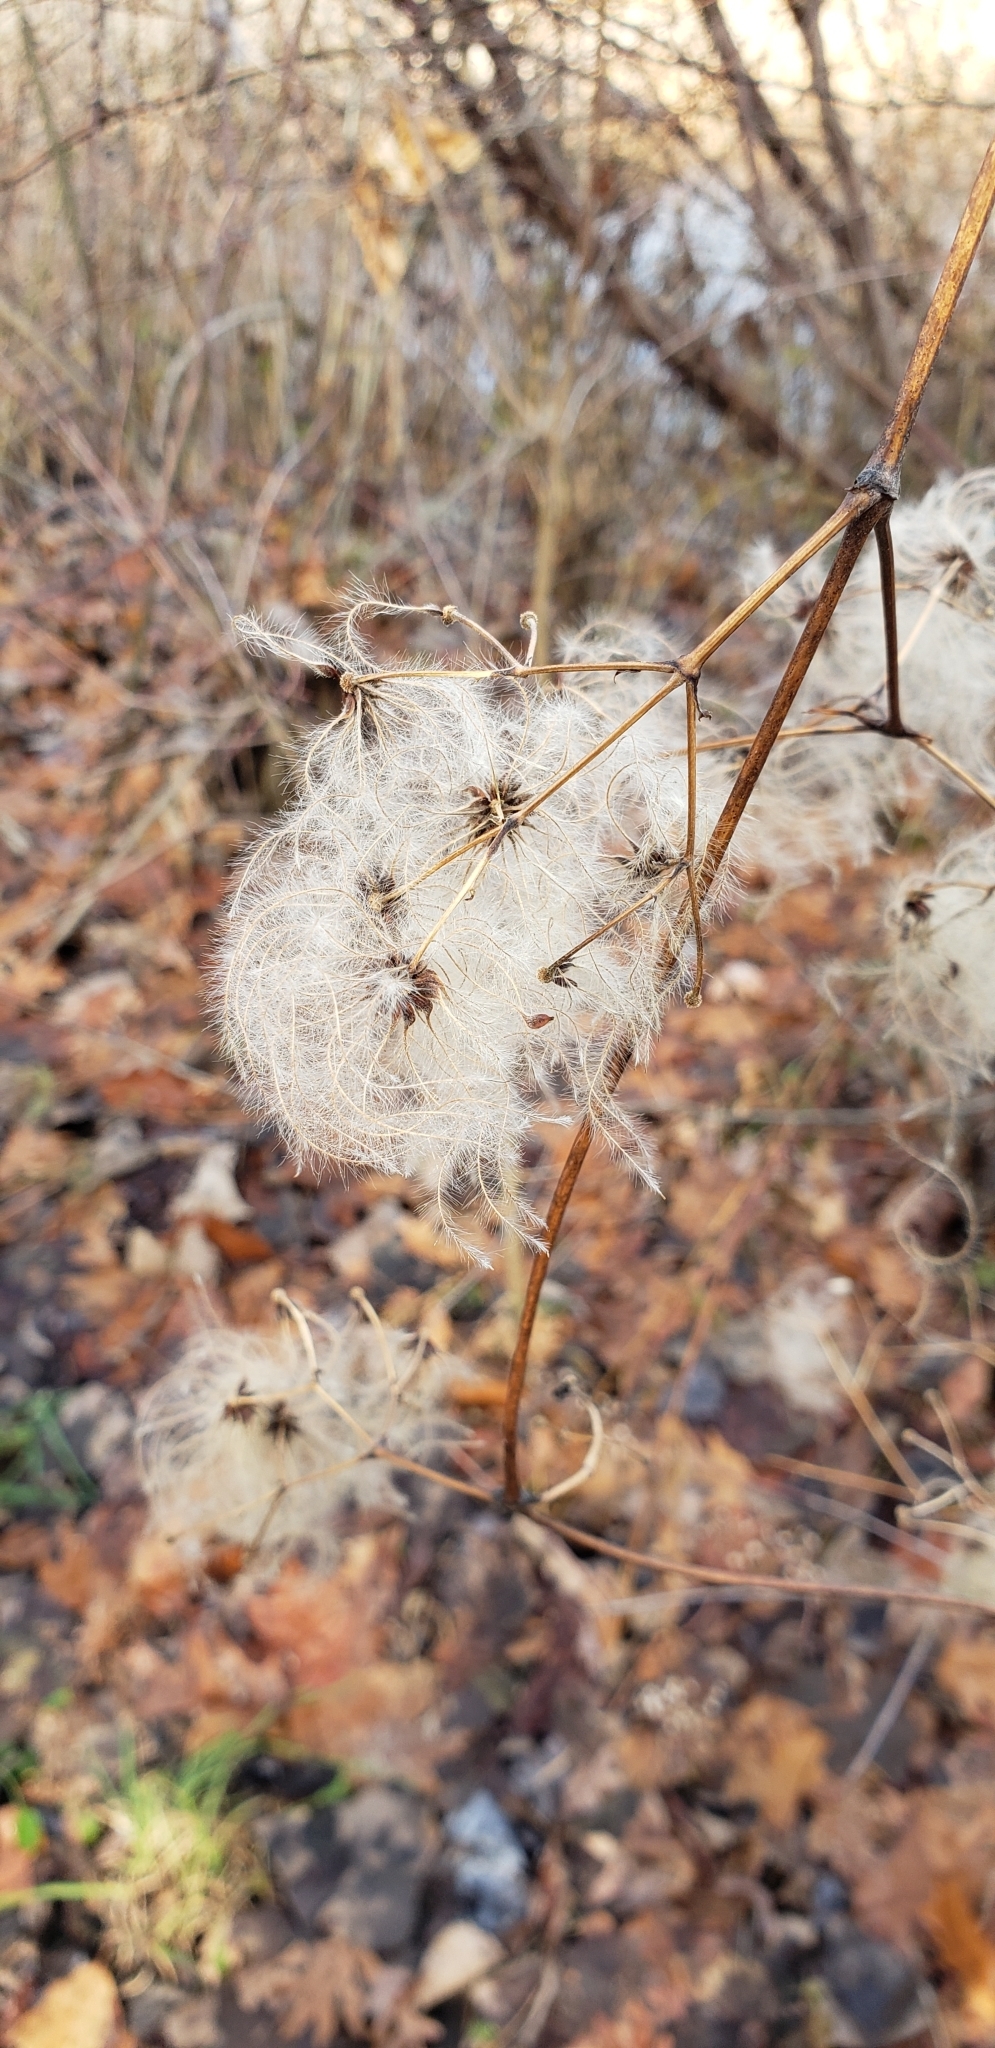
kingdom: Plantae
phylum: Tracheophyta
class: Magnoliopsida
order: Ranunculales
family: Ranunculaceae
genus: Clematis
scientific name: Clematis virginiana
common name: Virgin's-bower
